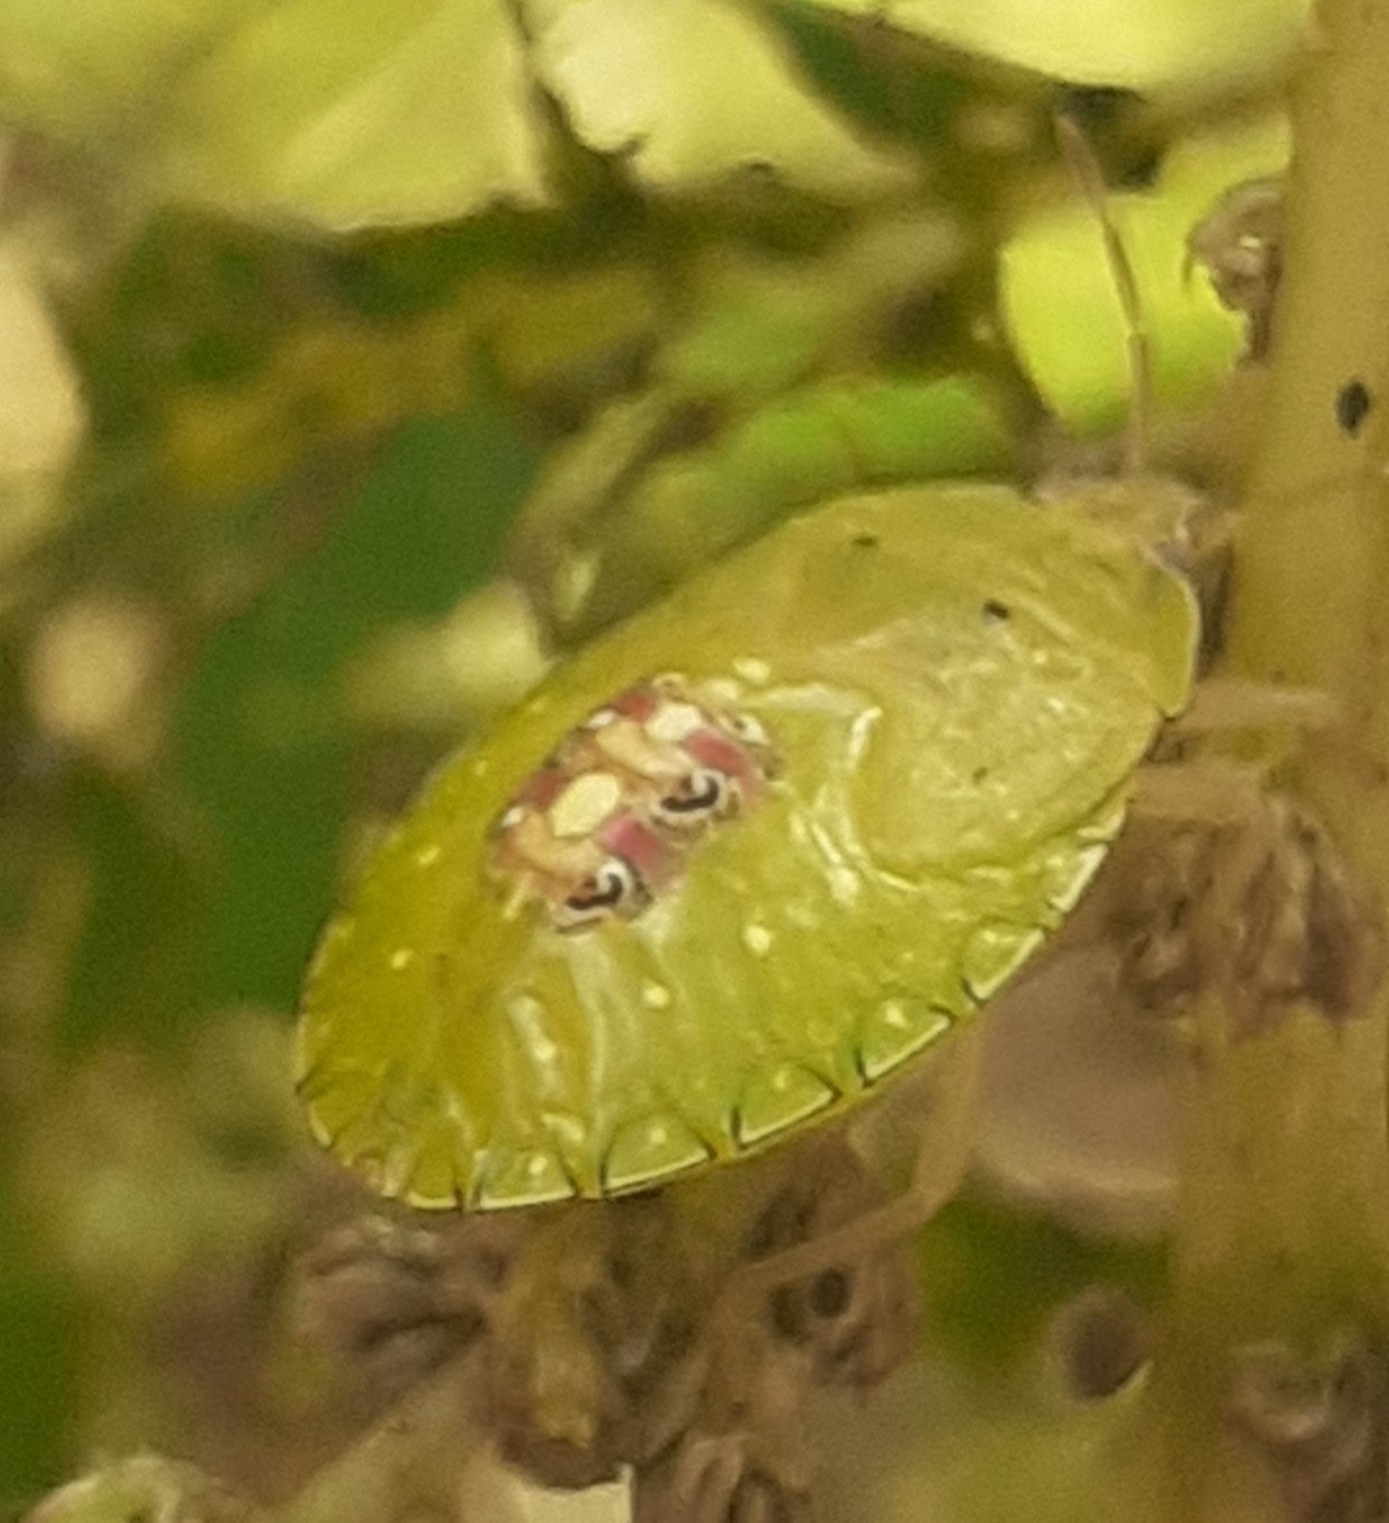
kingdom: Animalia
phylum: Arthropoda
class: Insecta
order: Hemiptera
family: Pentatomidae
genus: Edessa
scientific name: Edessa meditabunda
